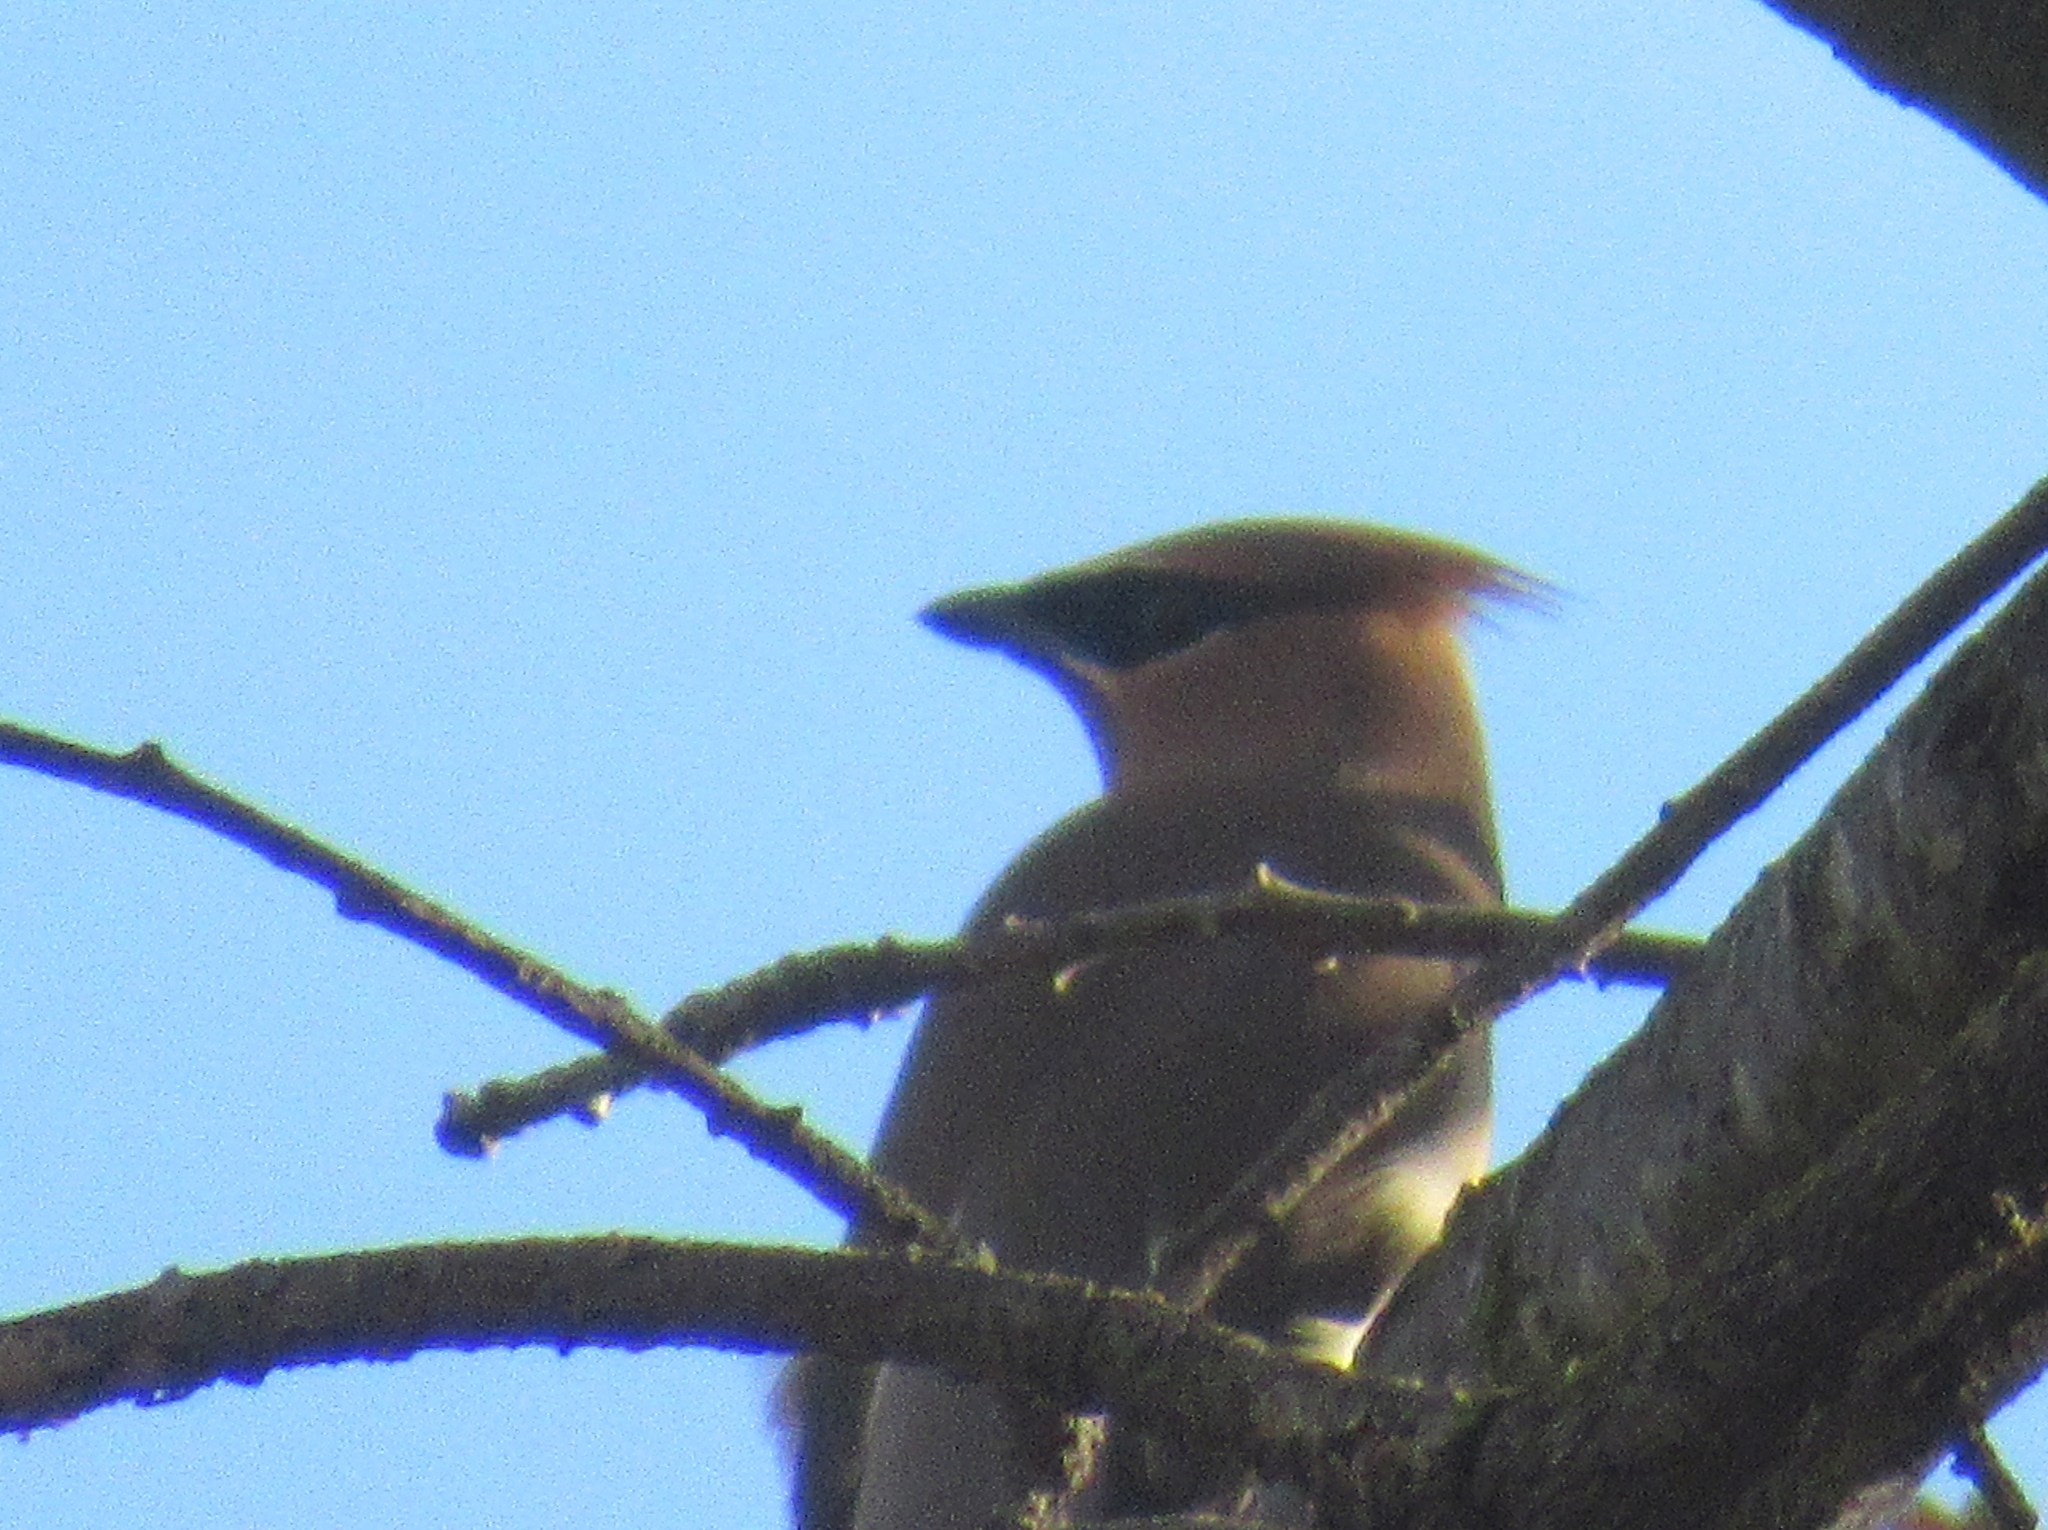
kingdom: Animalia
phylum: Chordata
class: Aves
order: Passeriformes
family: Bombycillidae
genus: Bombycilla
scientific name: Bombycilla cedrorum
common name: Cedar waxwing
